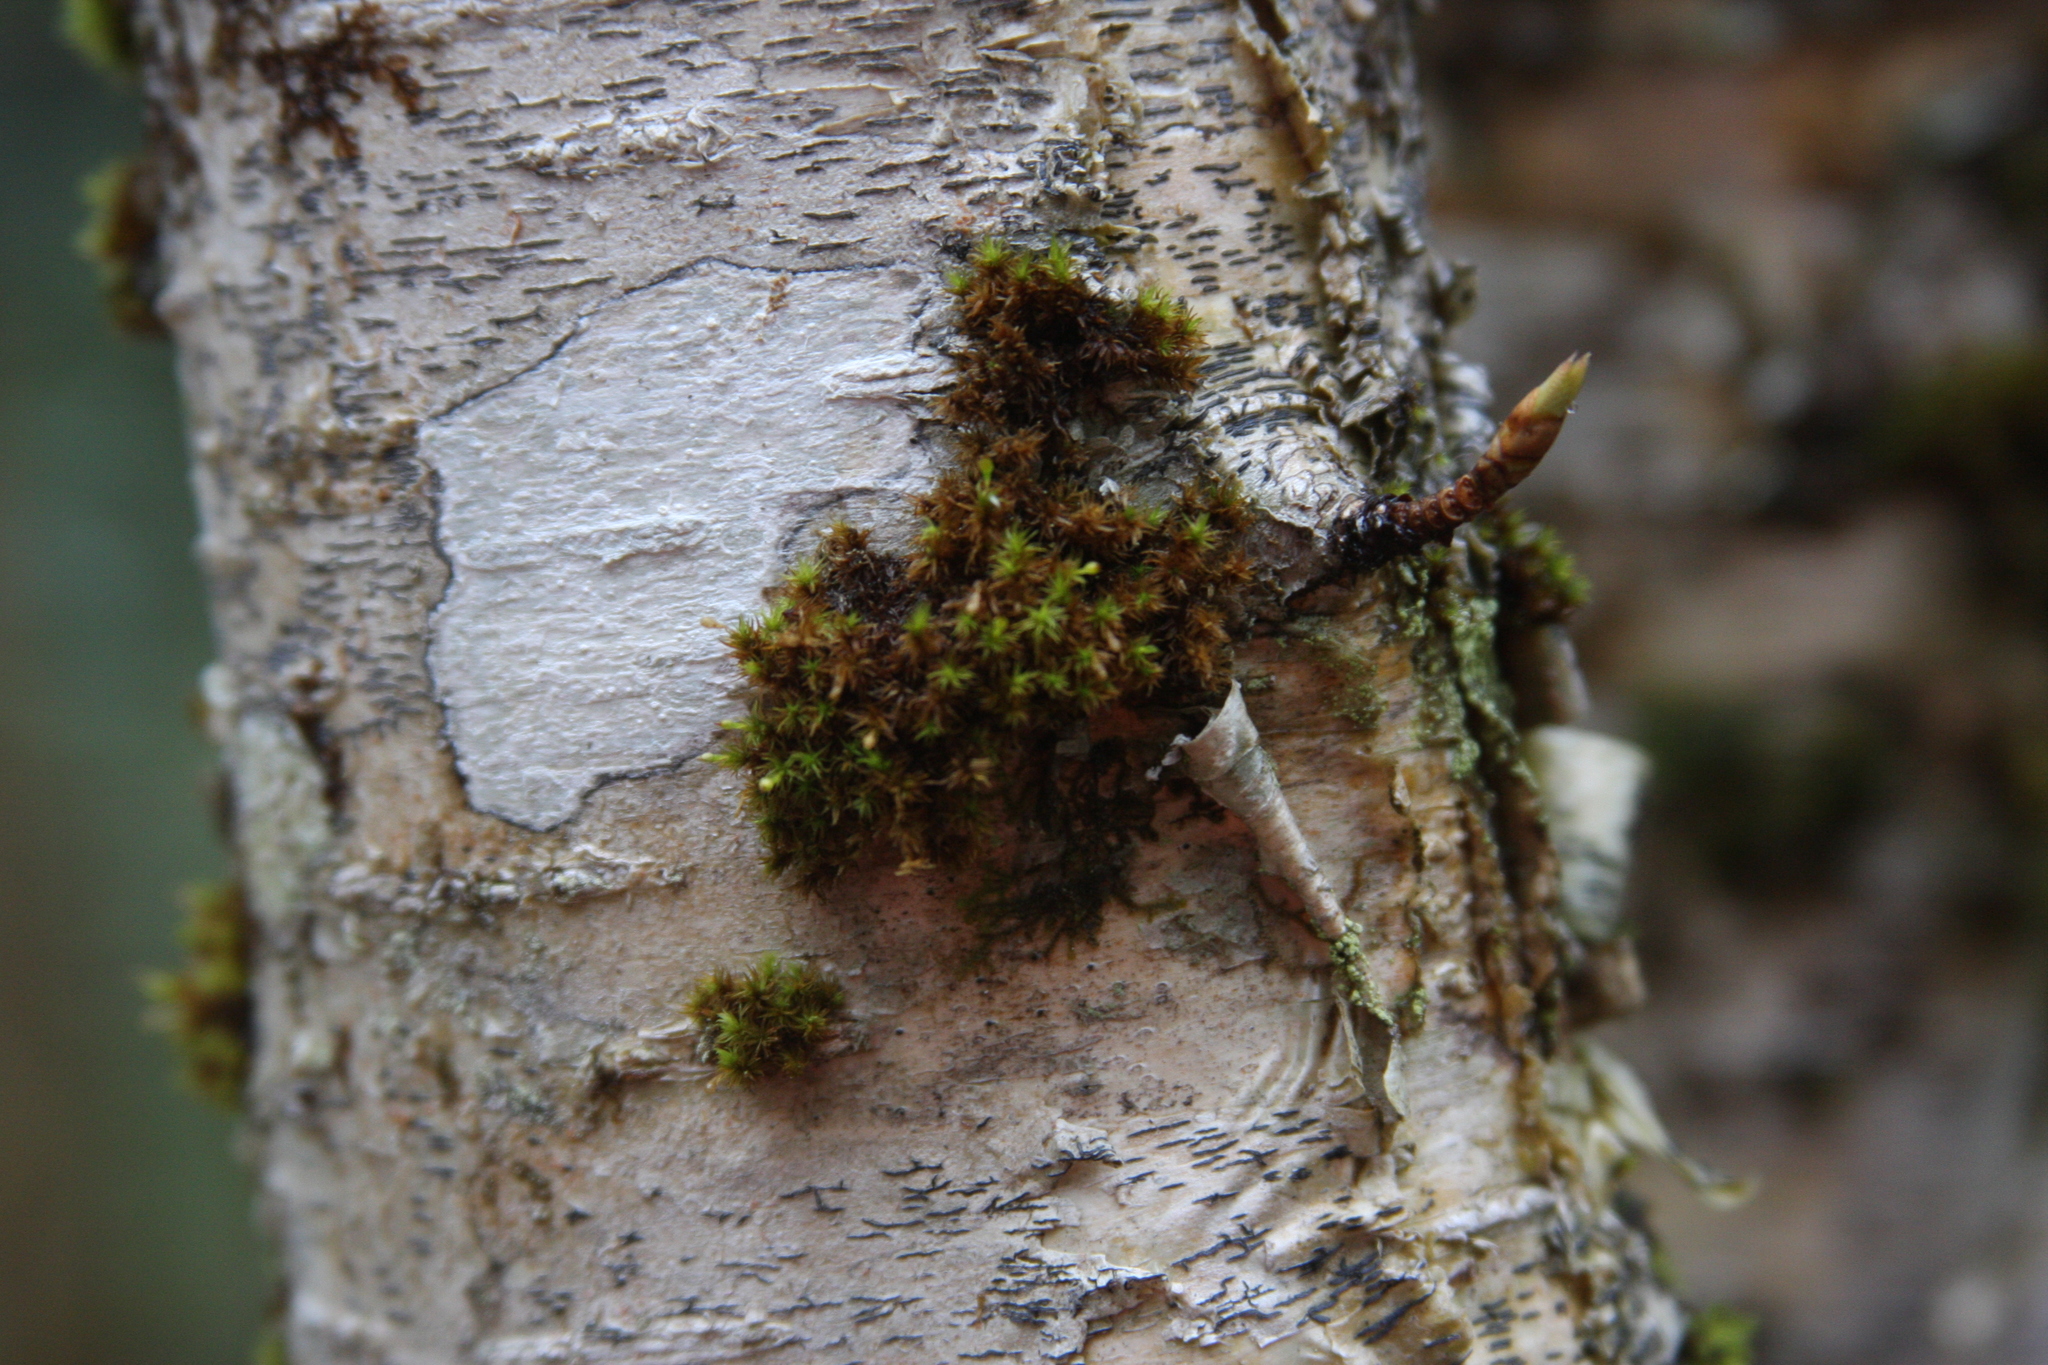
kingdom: Plantae
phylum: Bryophyta
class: Bryopsida
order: Orthotrichales
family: Orthotrichaceae
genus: Ulota
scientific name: Ulota crispa
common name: Crisped pincushion moss
